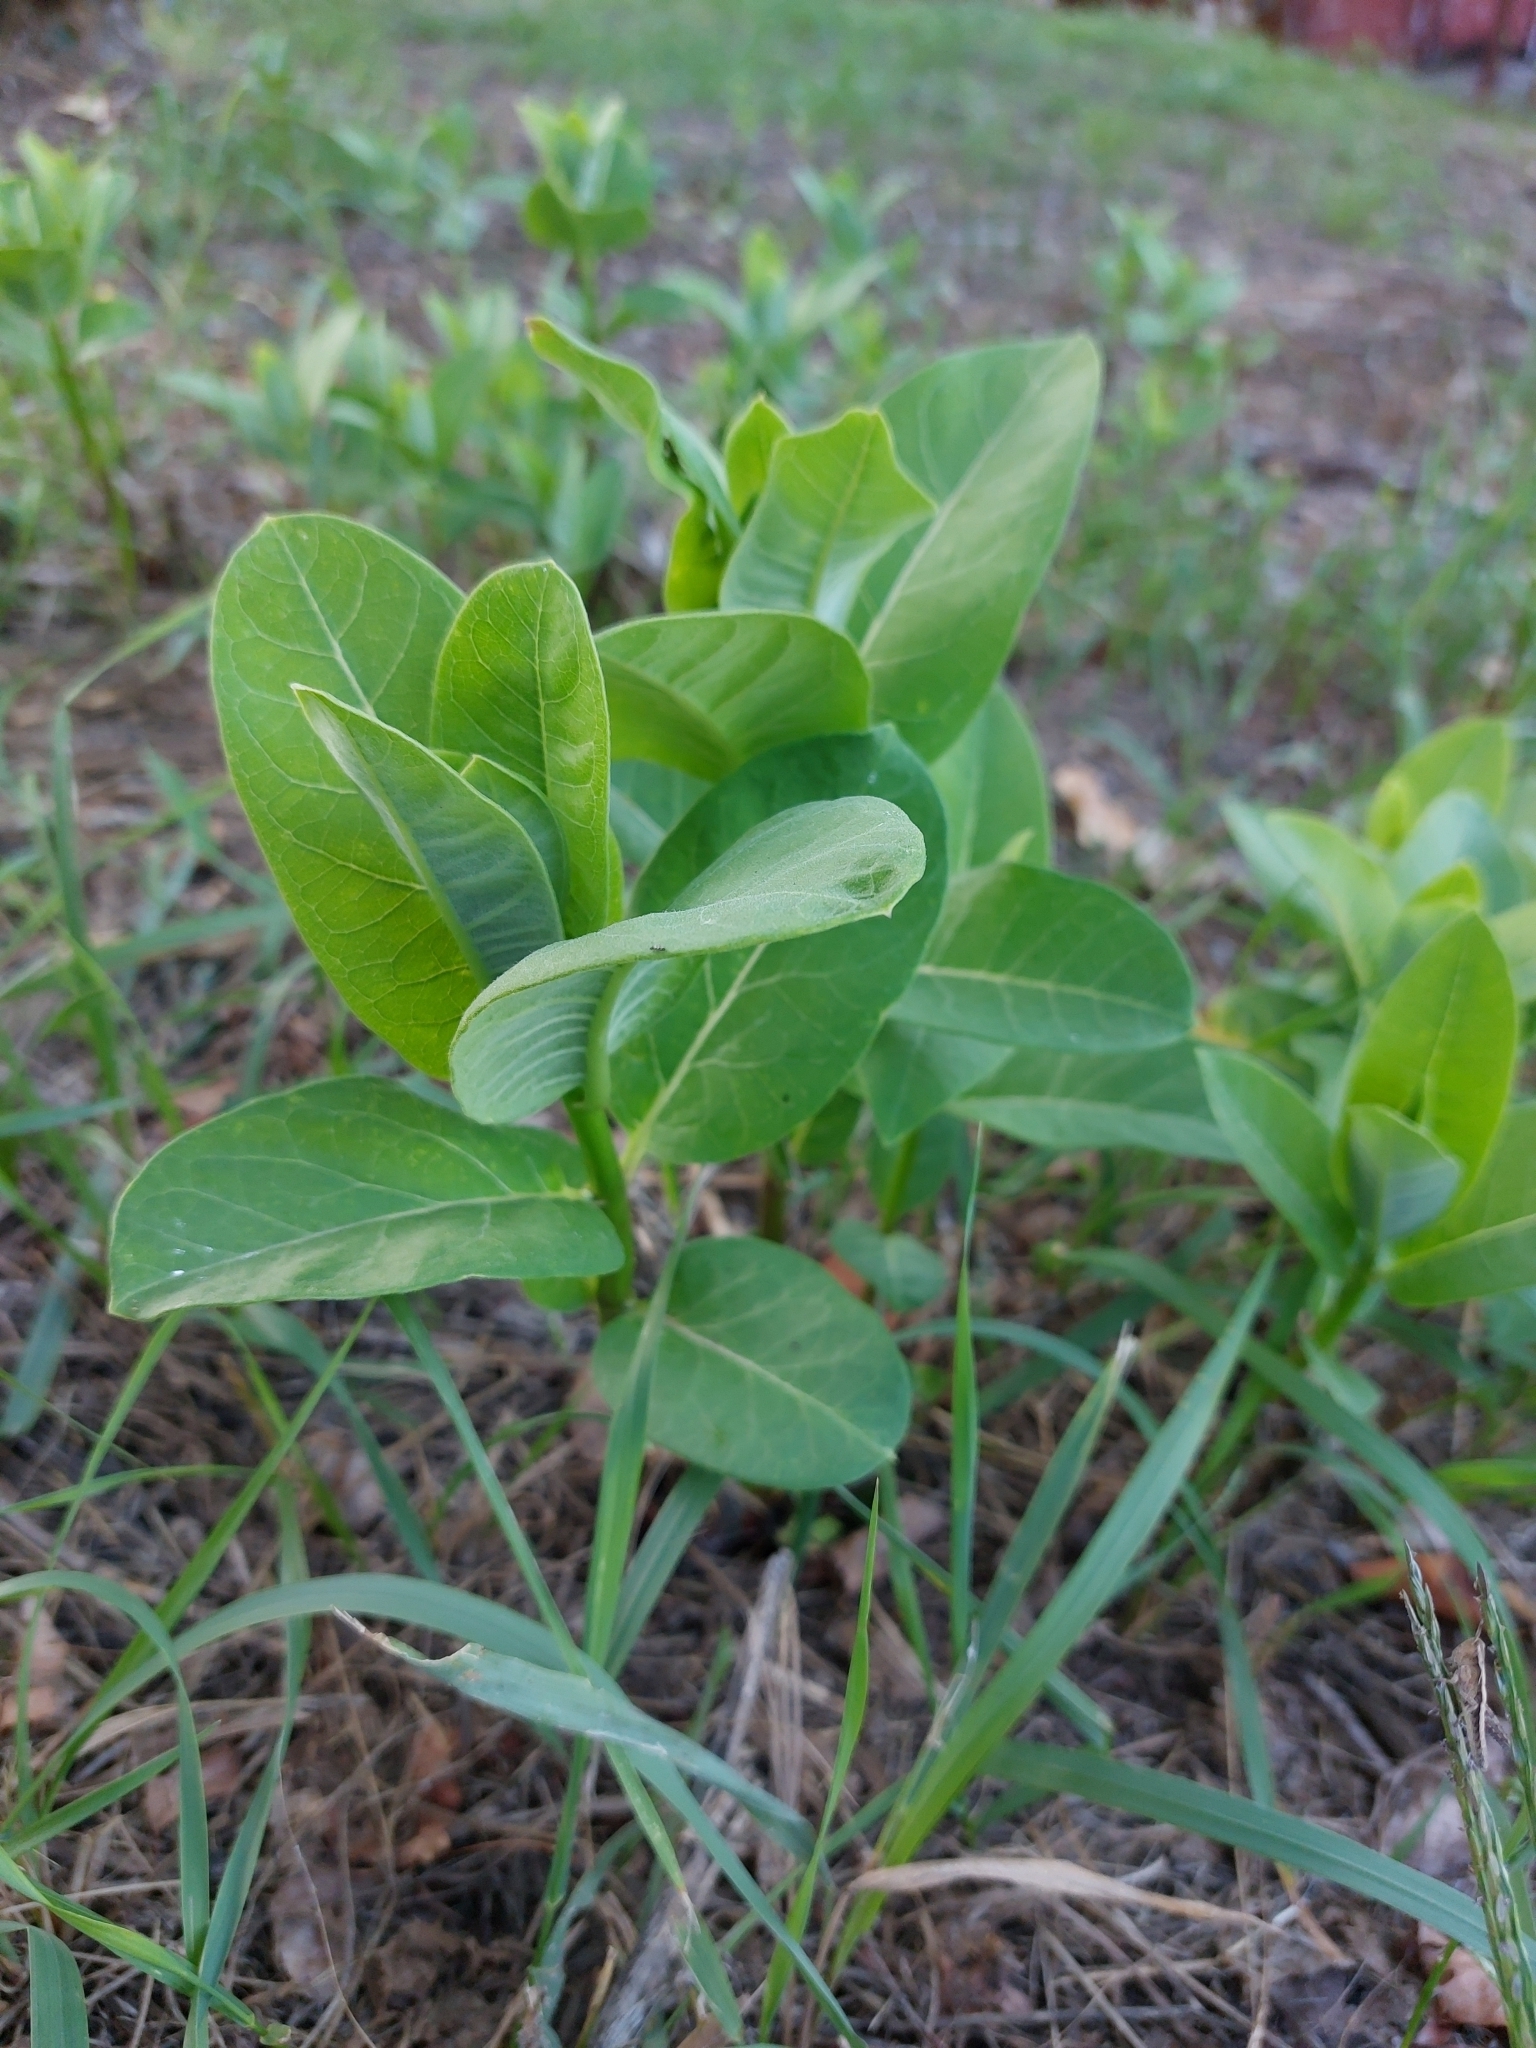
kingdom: Plantae
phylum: Tracheophyta
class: Magnoliopsida
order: Gentianales
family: Apocynaceae
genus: Asclepias
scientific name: Asclepias syriaca
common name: Common milkweed
